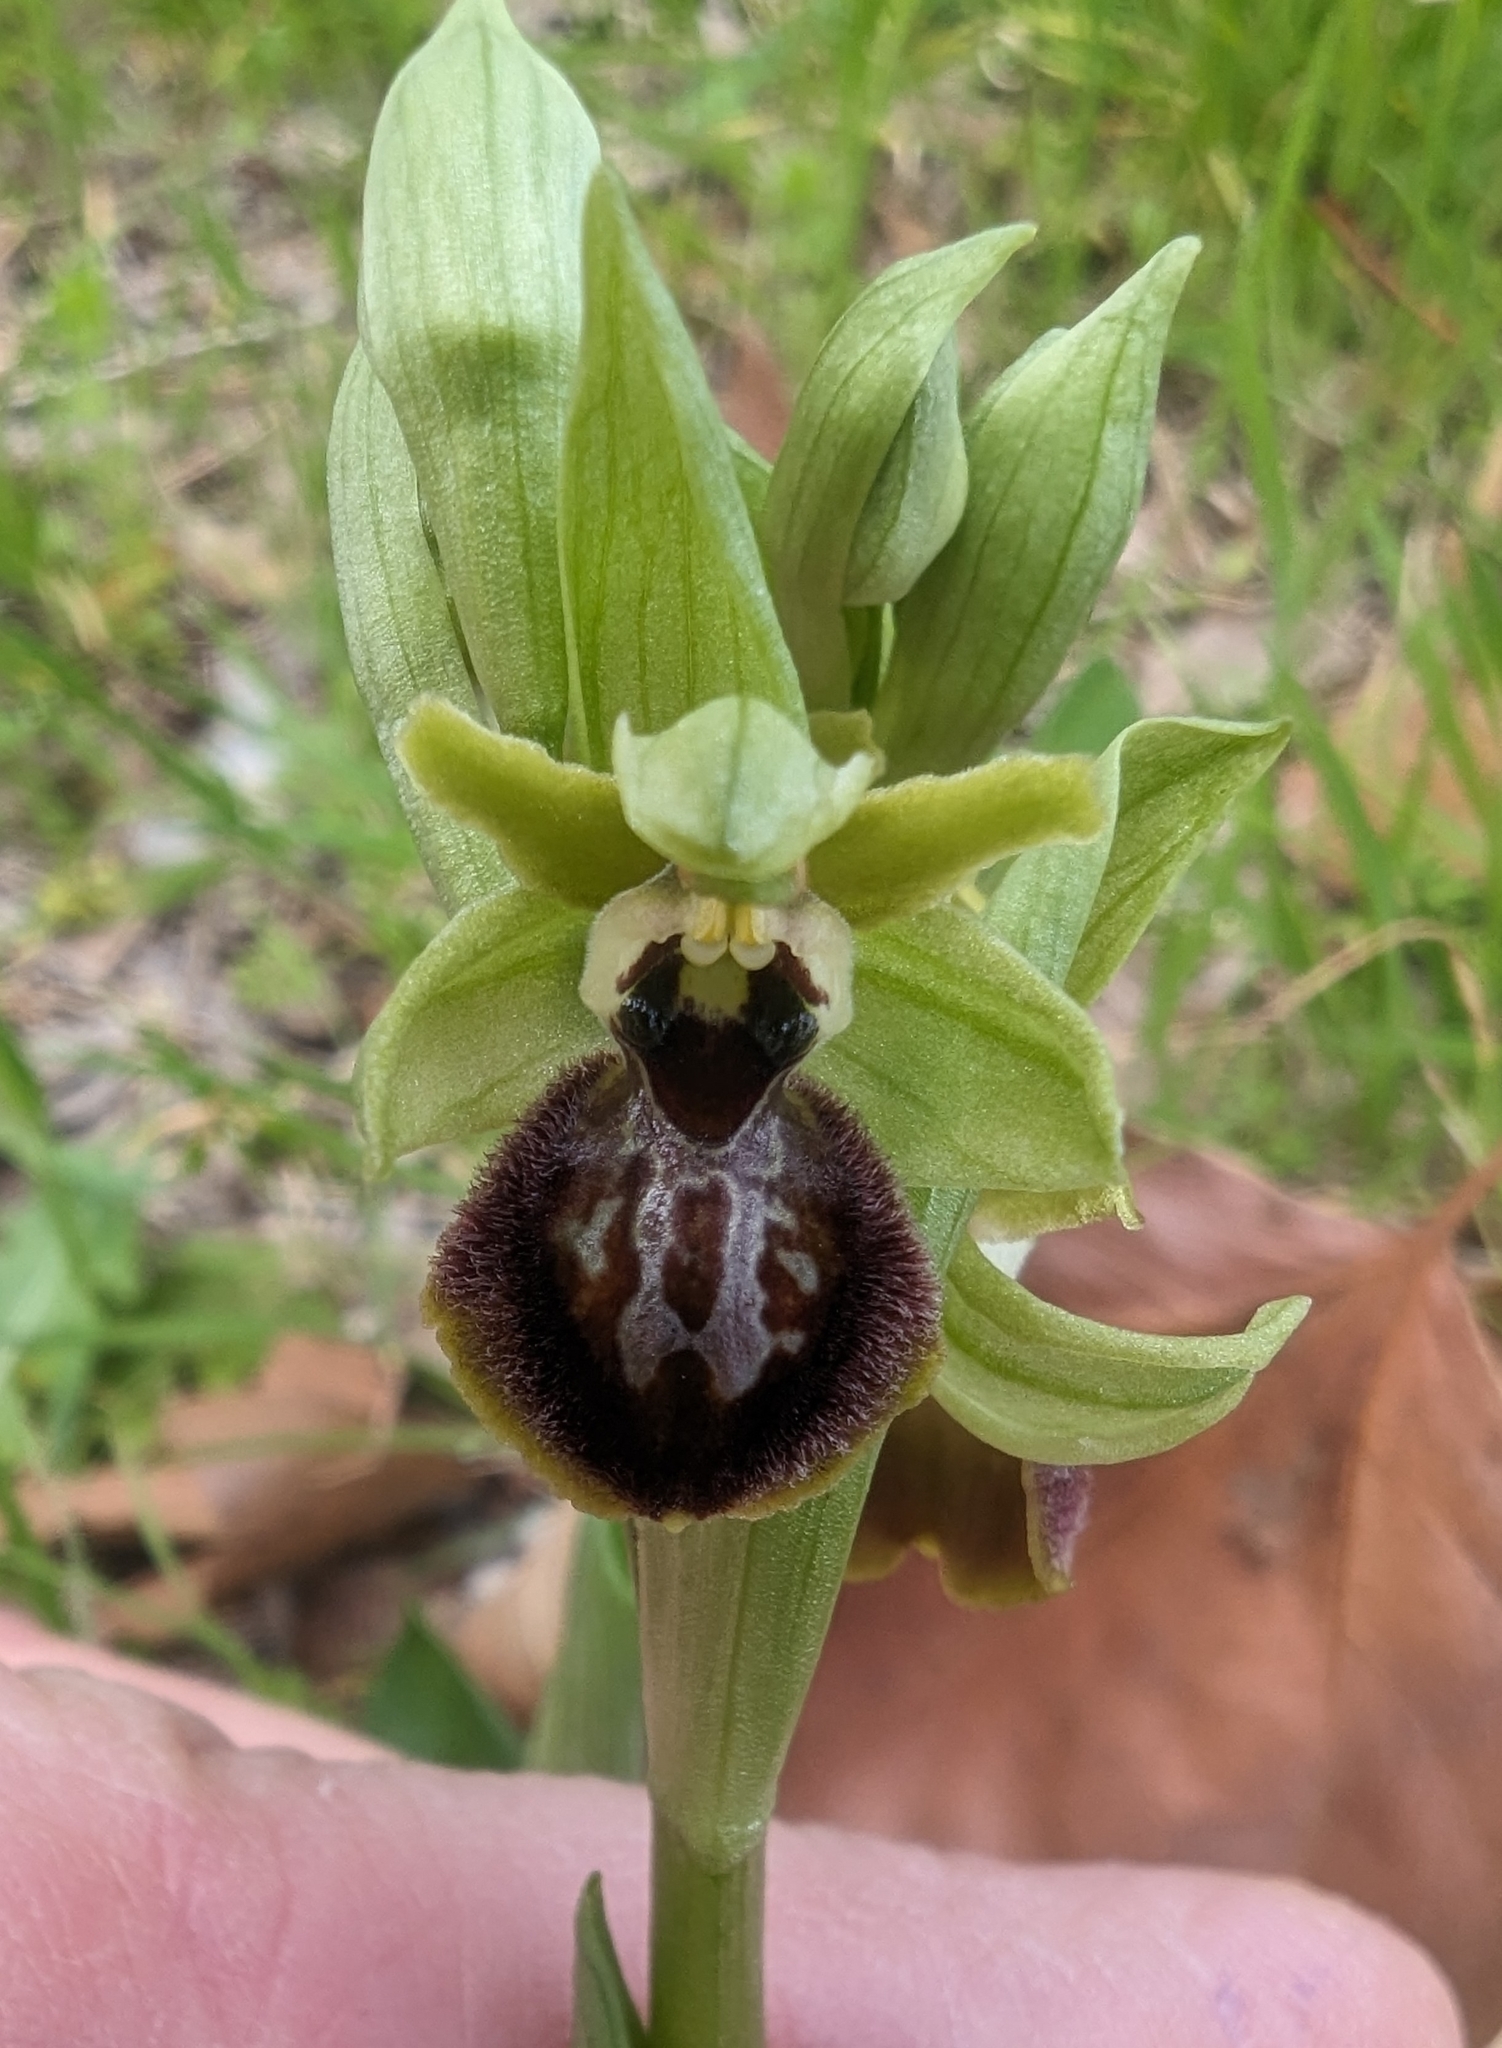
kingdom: Plantae
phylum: Tracheophyta
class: Liliopsida
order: Asparagales
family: Orchidaceae
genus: Ophrys
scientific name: Ophrys arachnitiformis
